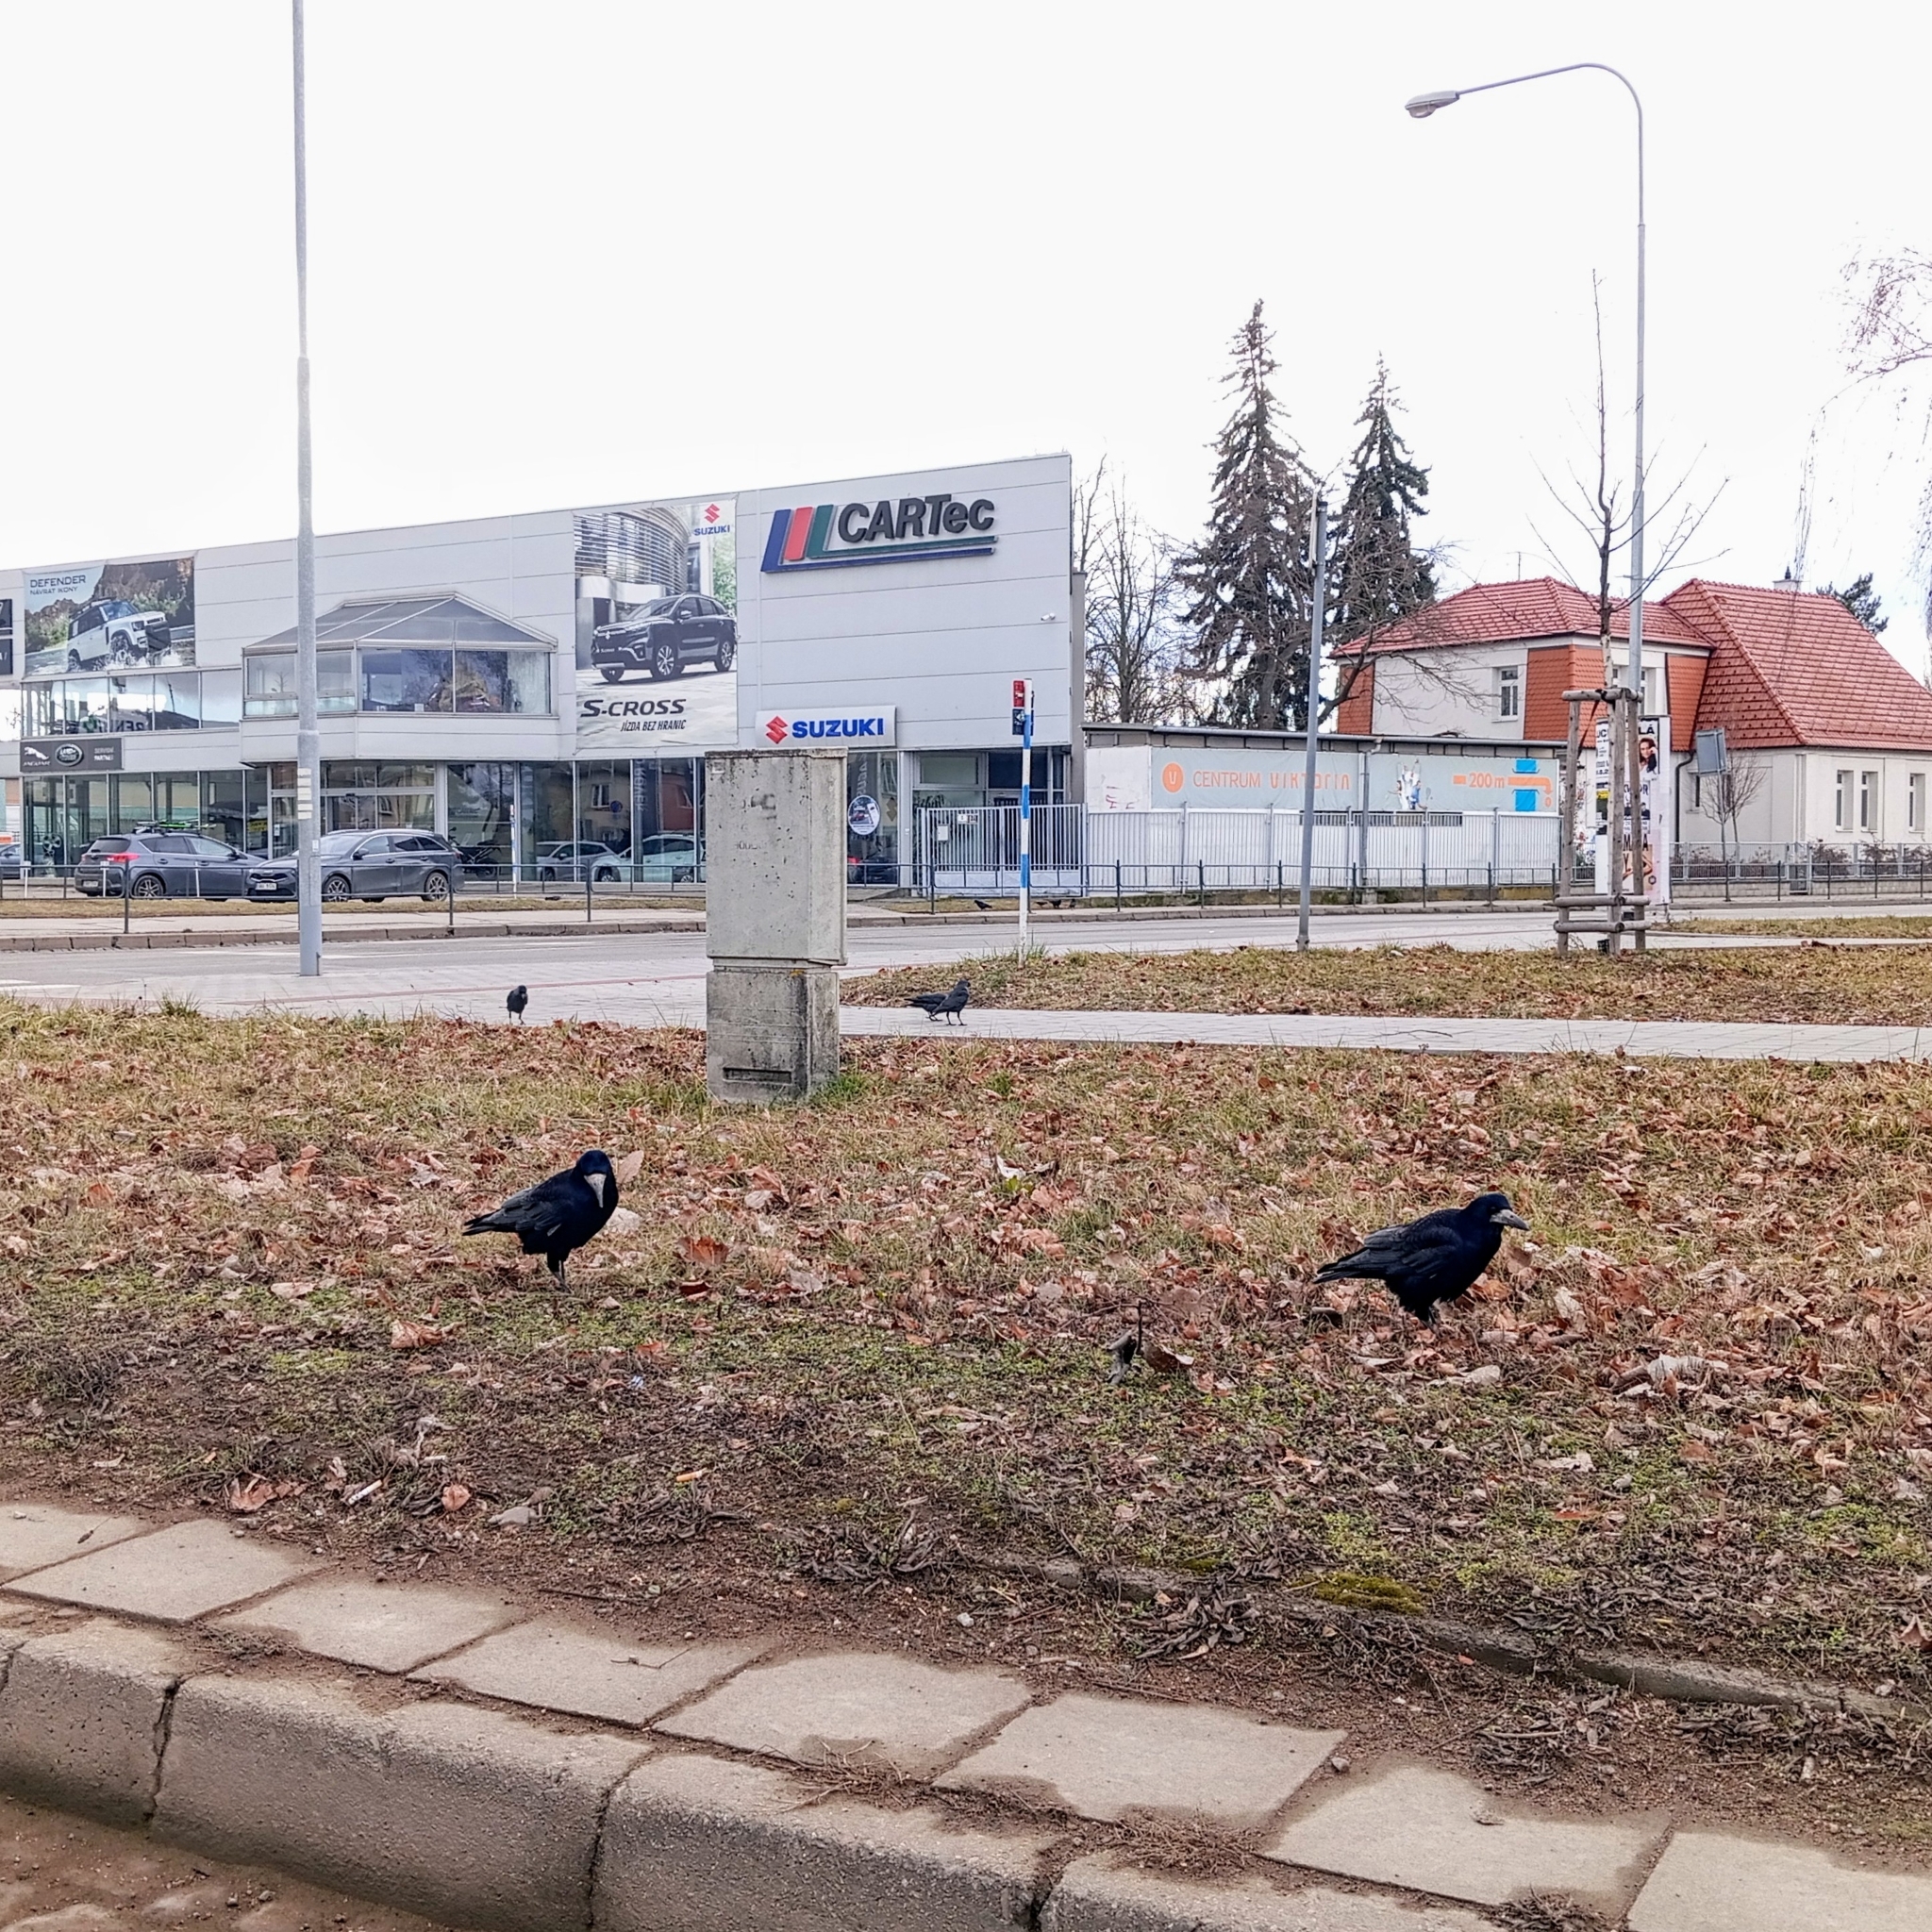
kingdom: Animalia
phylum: Chordata
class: Aves
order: Passeriformes
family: Corvidae
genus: Corvus
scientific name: Corvus frugilegus
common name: Rook
